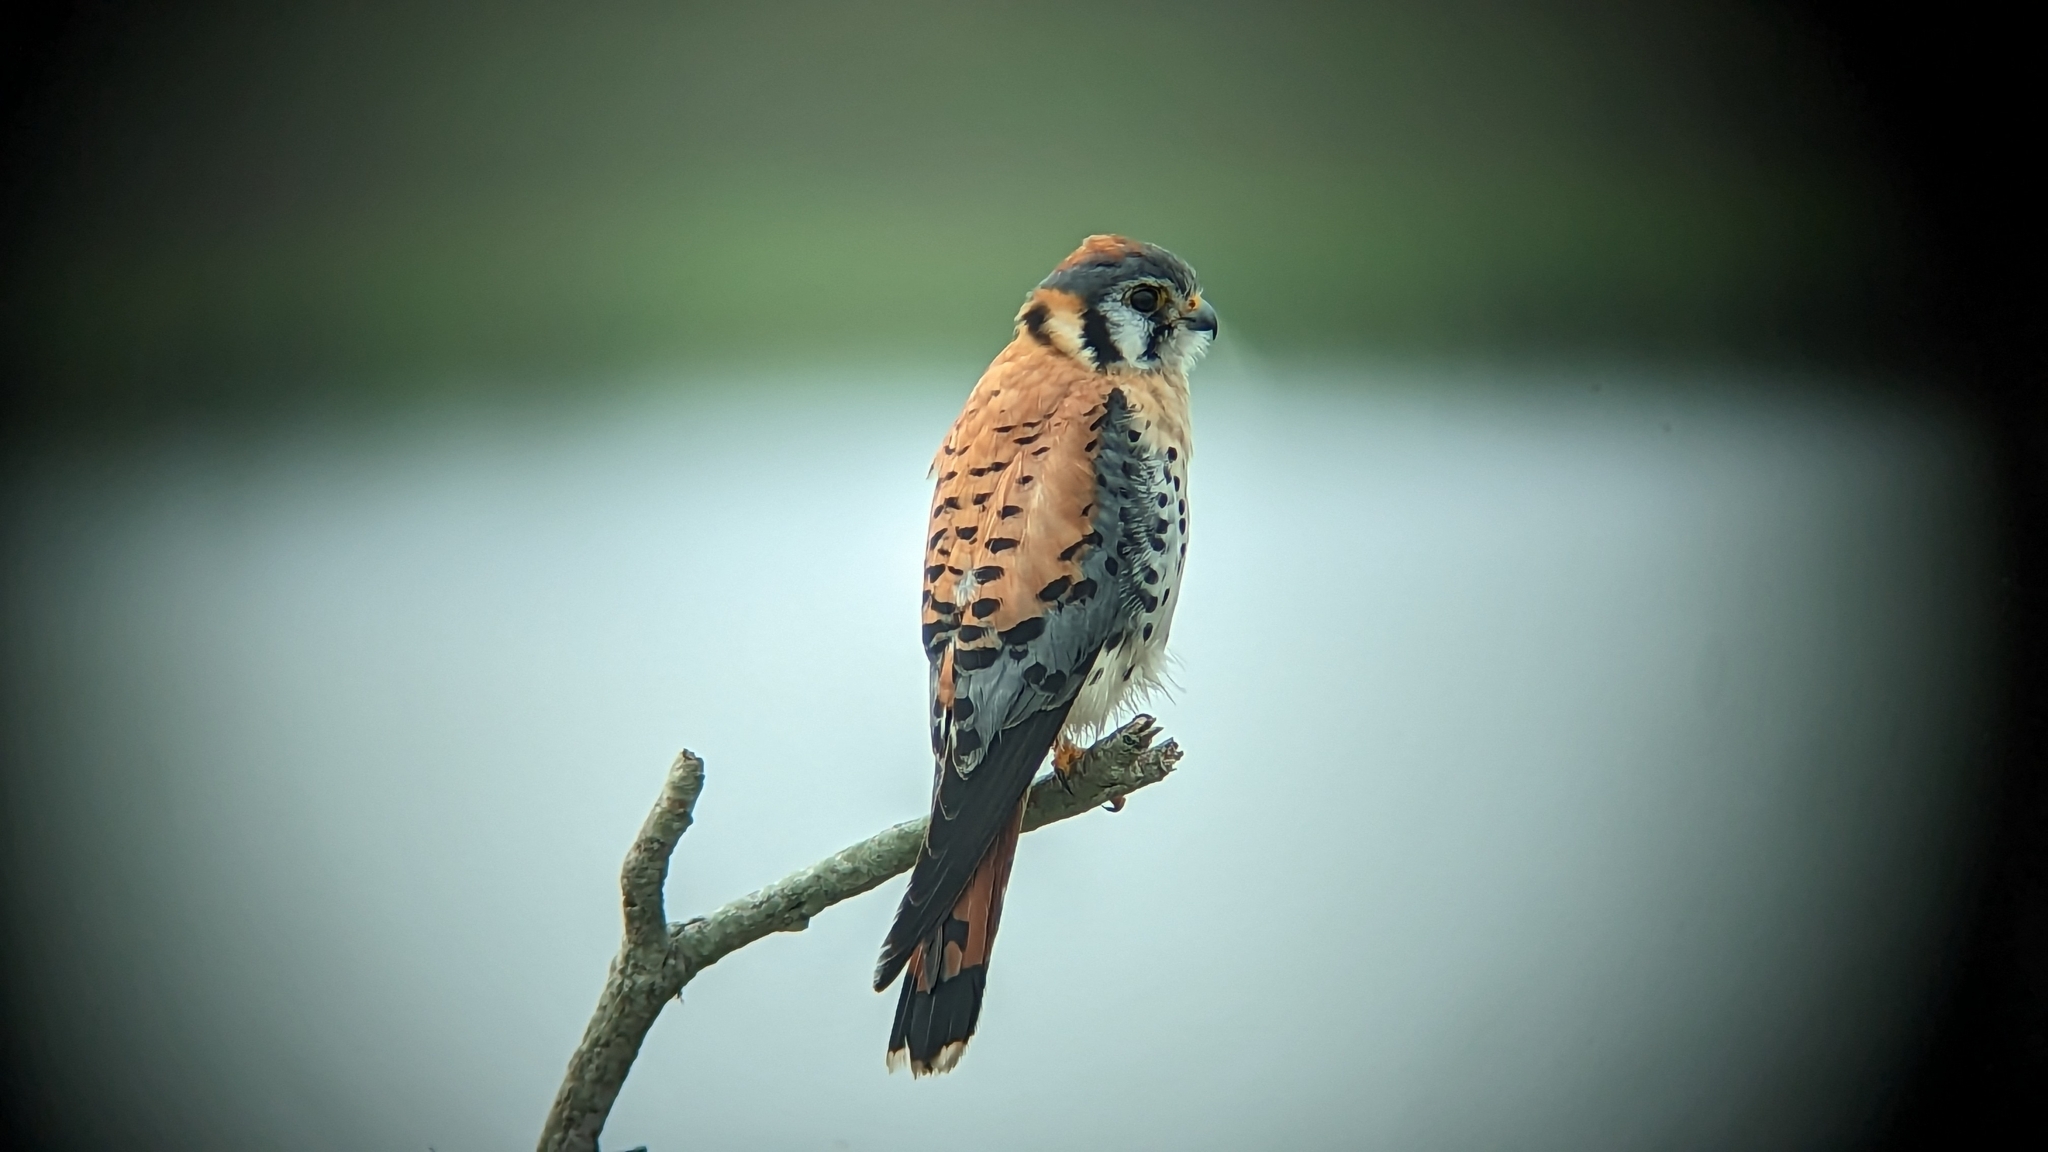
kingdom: Animalia
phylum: Chordata
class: Aves
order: Falconiformes
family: Falconidae
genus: Falco
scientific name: Falco sparverius
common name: American kestrel
